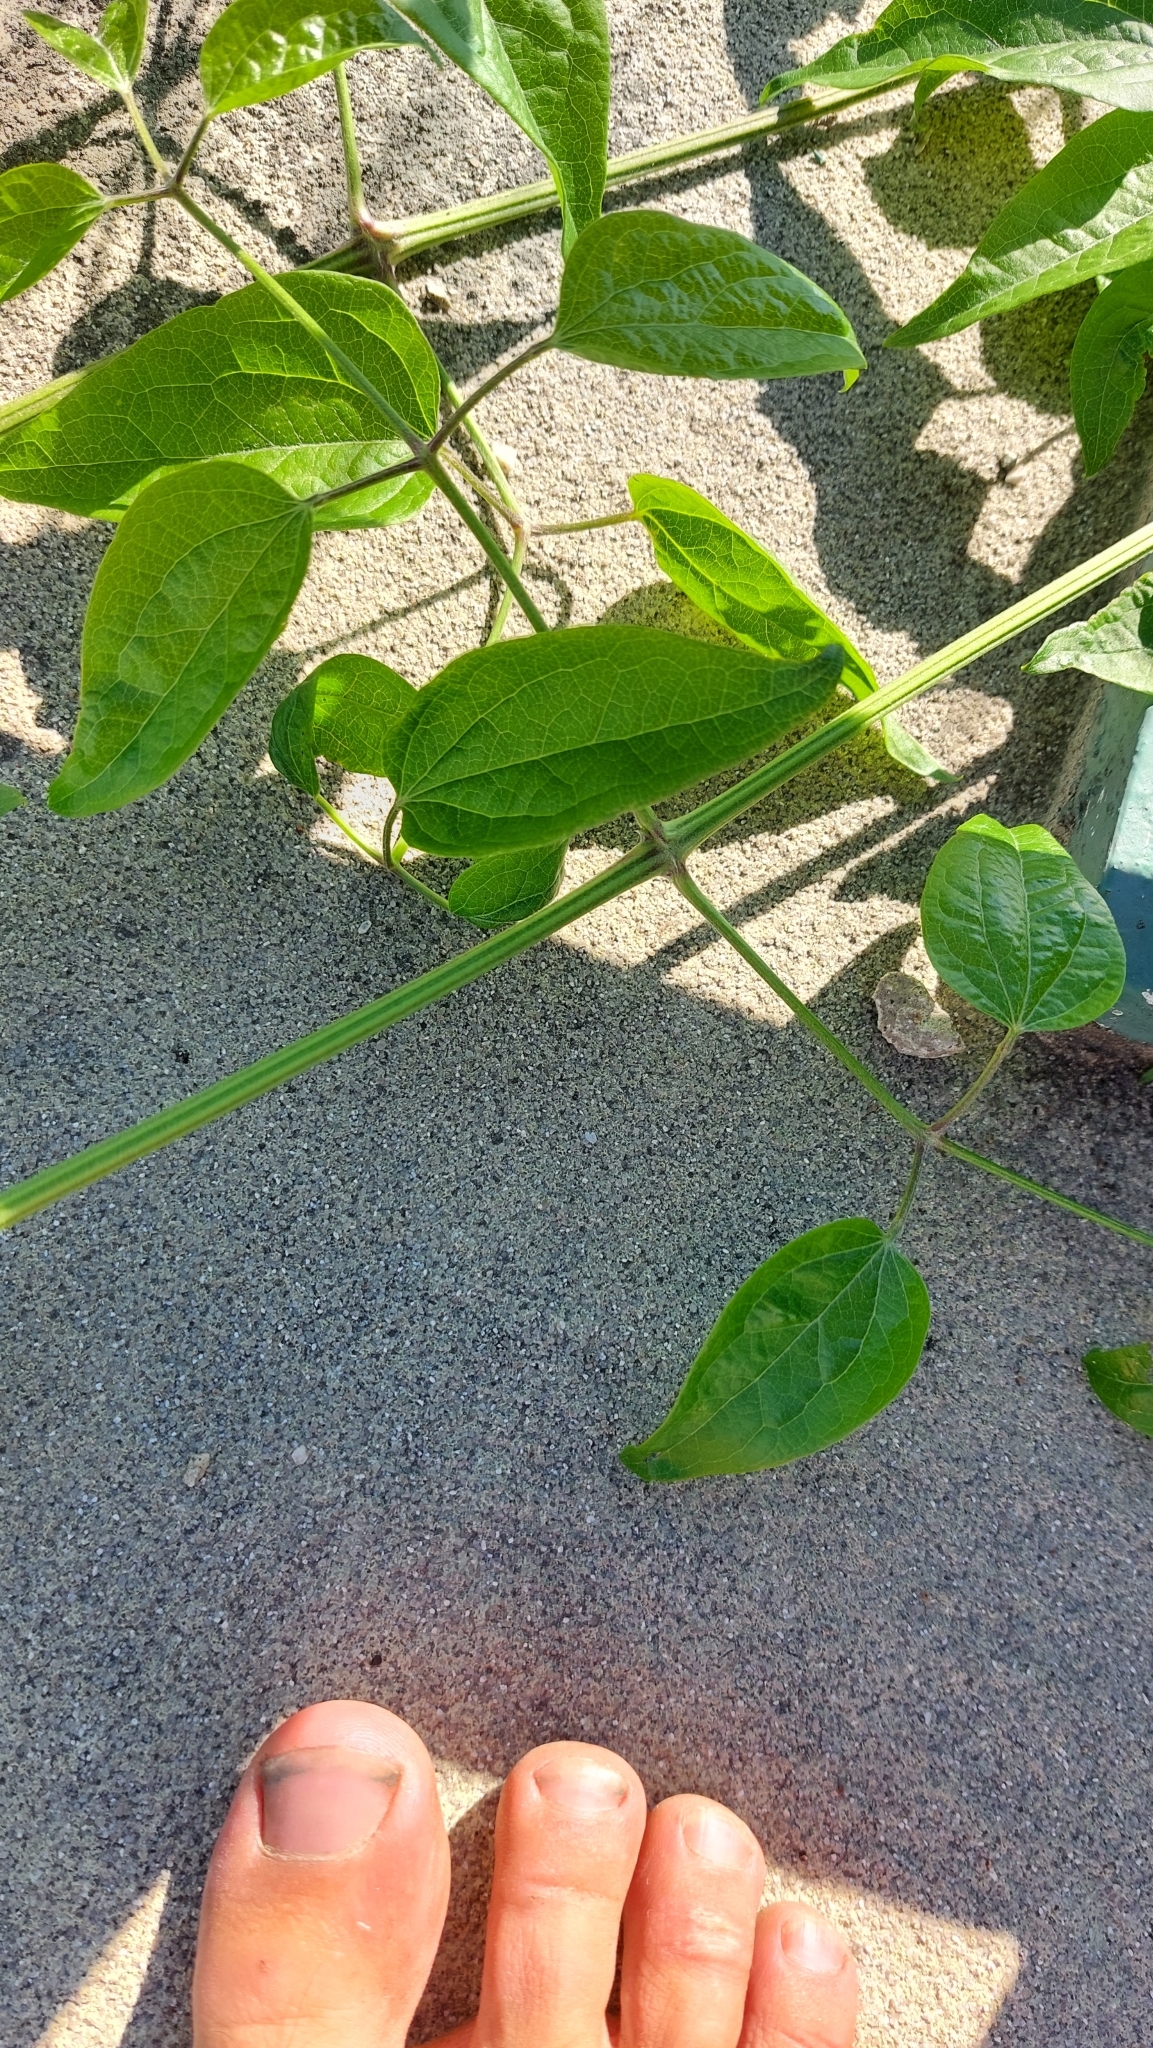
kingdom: Plantae
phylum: Tracheophyta
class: Magnoliopsida
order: Ranunculales
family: Ranunculaceae
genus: Clematis
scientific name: Clematis vitalba
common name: Evergreen clematis
